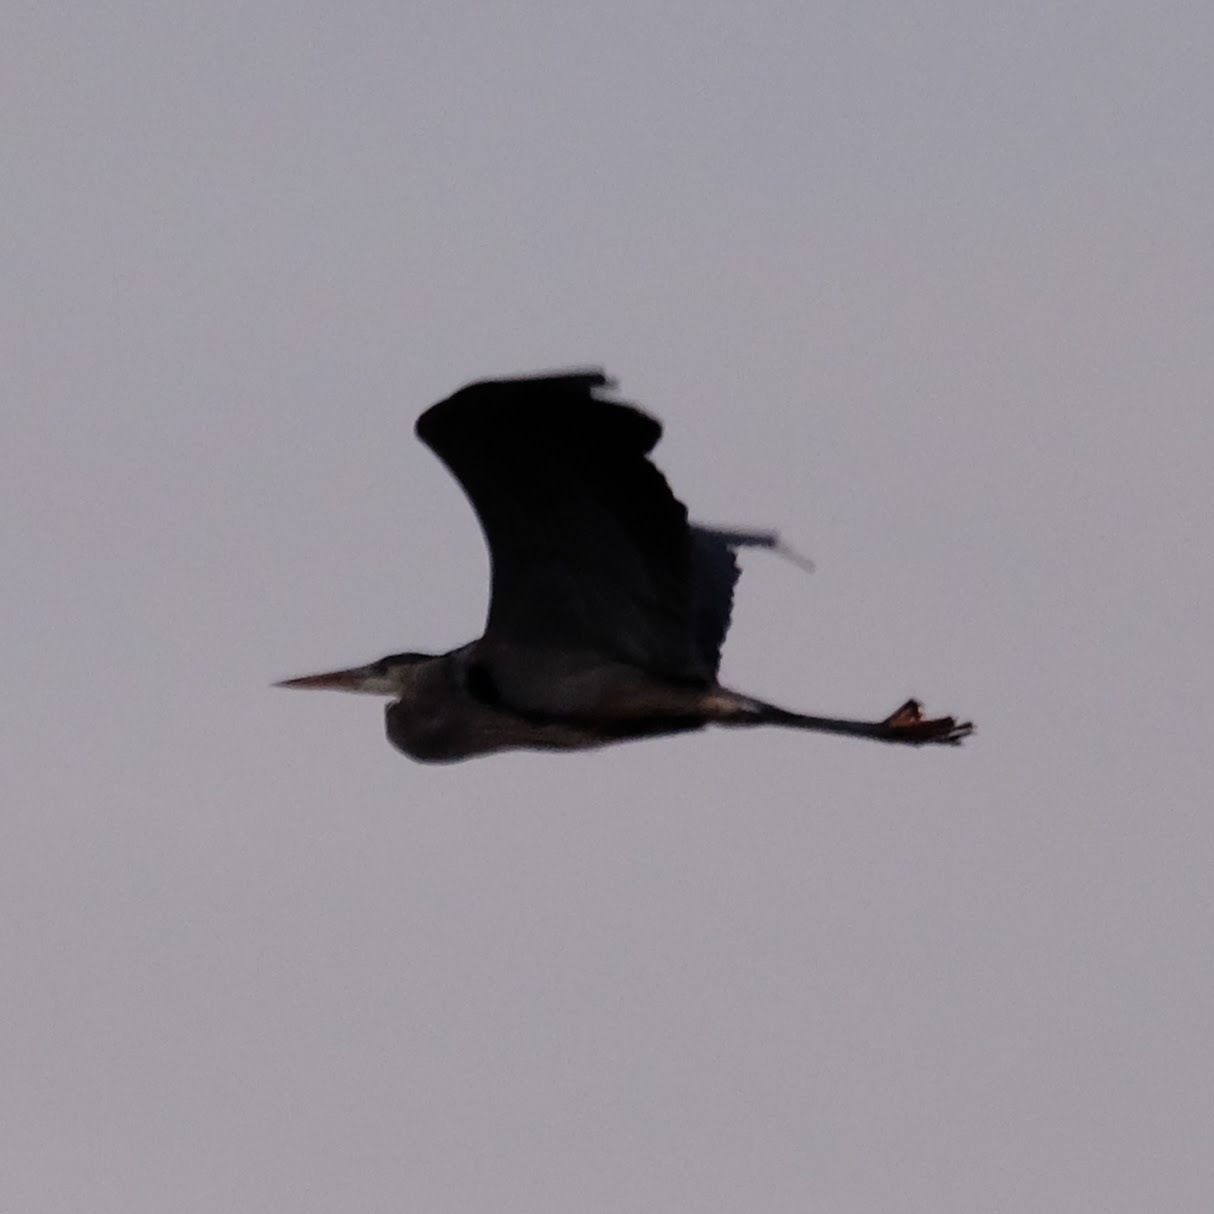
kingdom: Animalia
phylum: Chordata
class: Aves
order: Pelecaniformes
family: Ardeidae
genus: Ardea
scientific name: Ardea herodias
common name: Great blue heron
